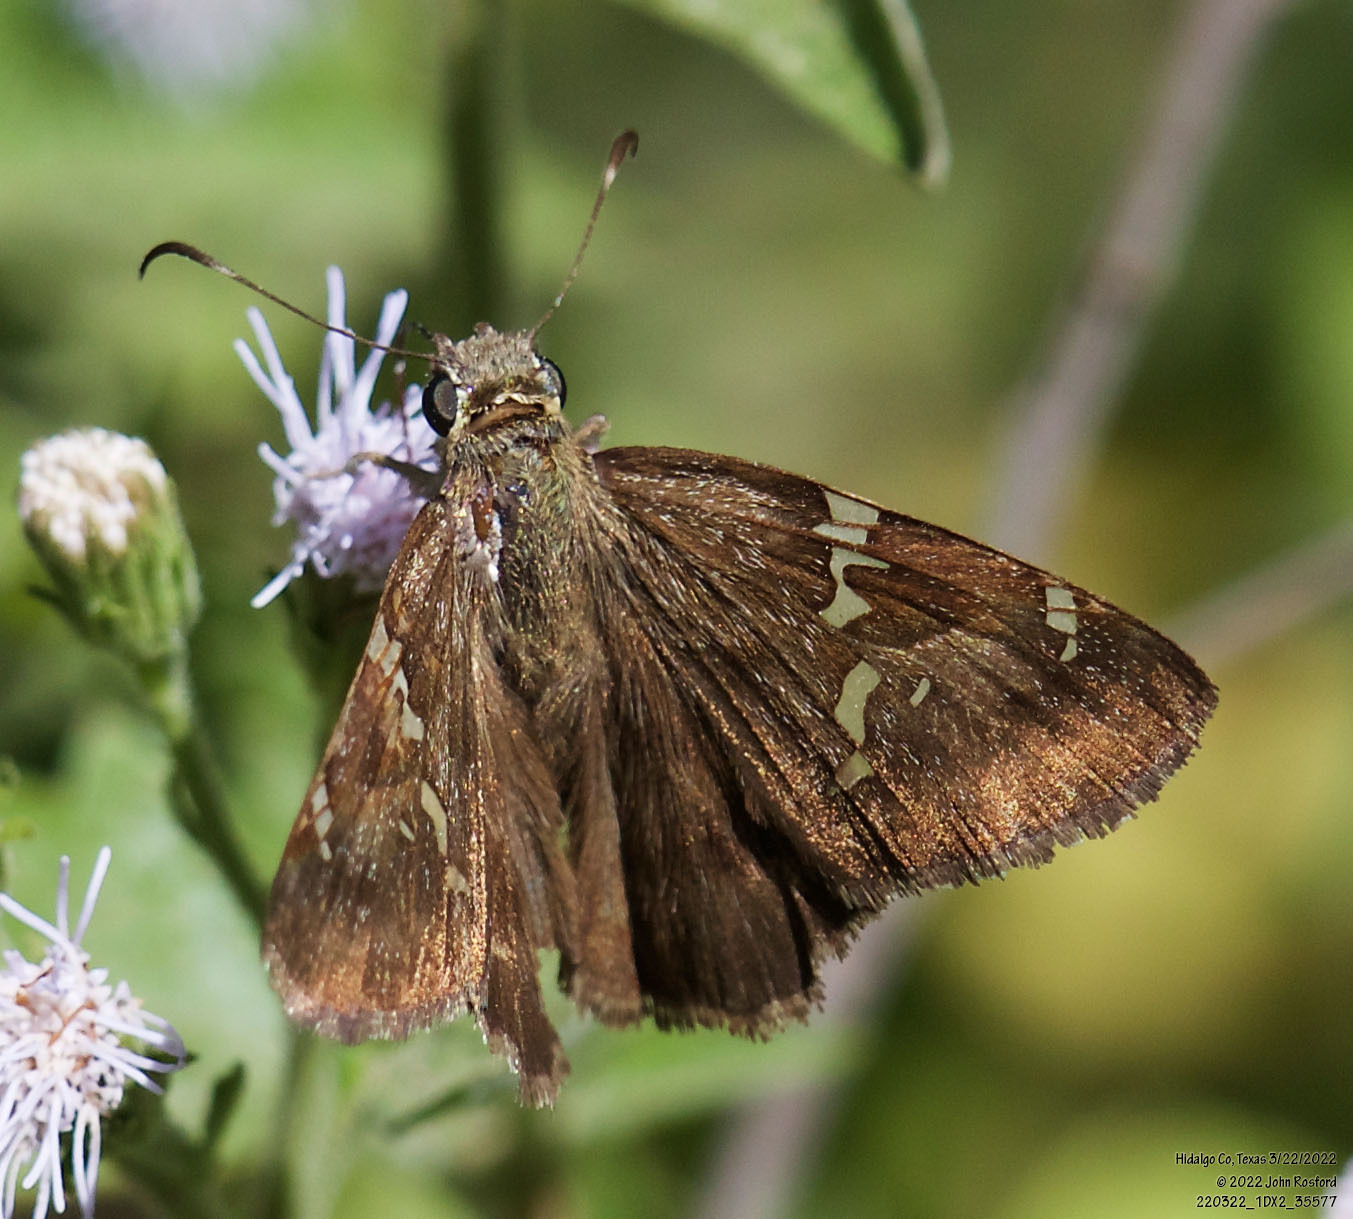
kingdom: Animalia
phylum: Arthropoda
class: Insecta
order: Lepidoptera
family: Hesperiidae
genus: Autochton
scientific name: Autochton potrillo
